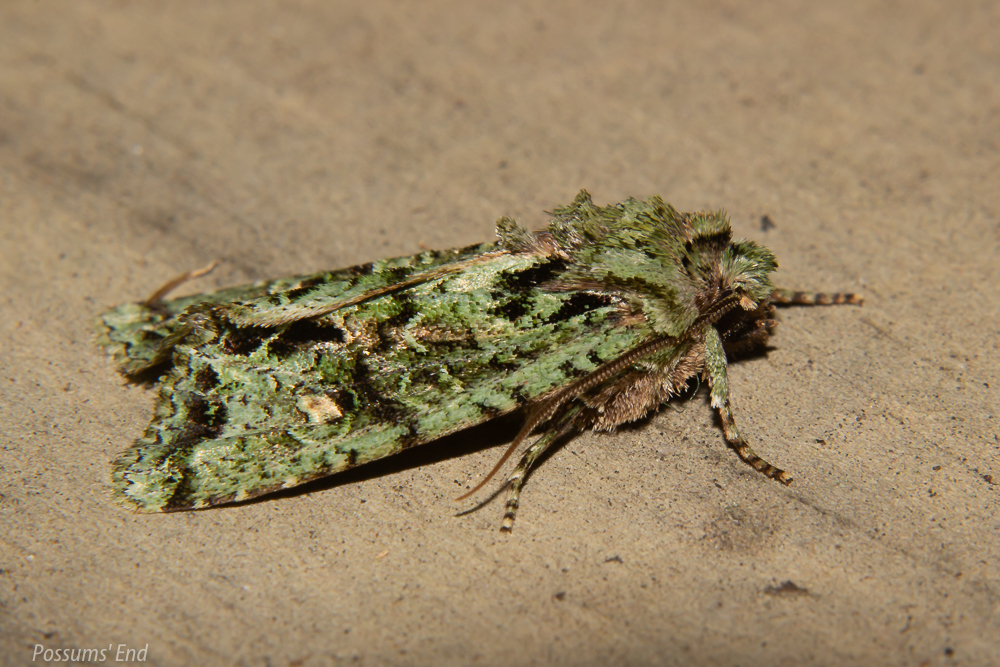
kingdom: Animalia
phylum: Arthropoda
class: Insecta
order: Lepidoptera
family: Noctuidae
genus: Ichneutica
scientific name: Ichneutica
